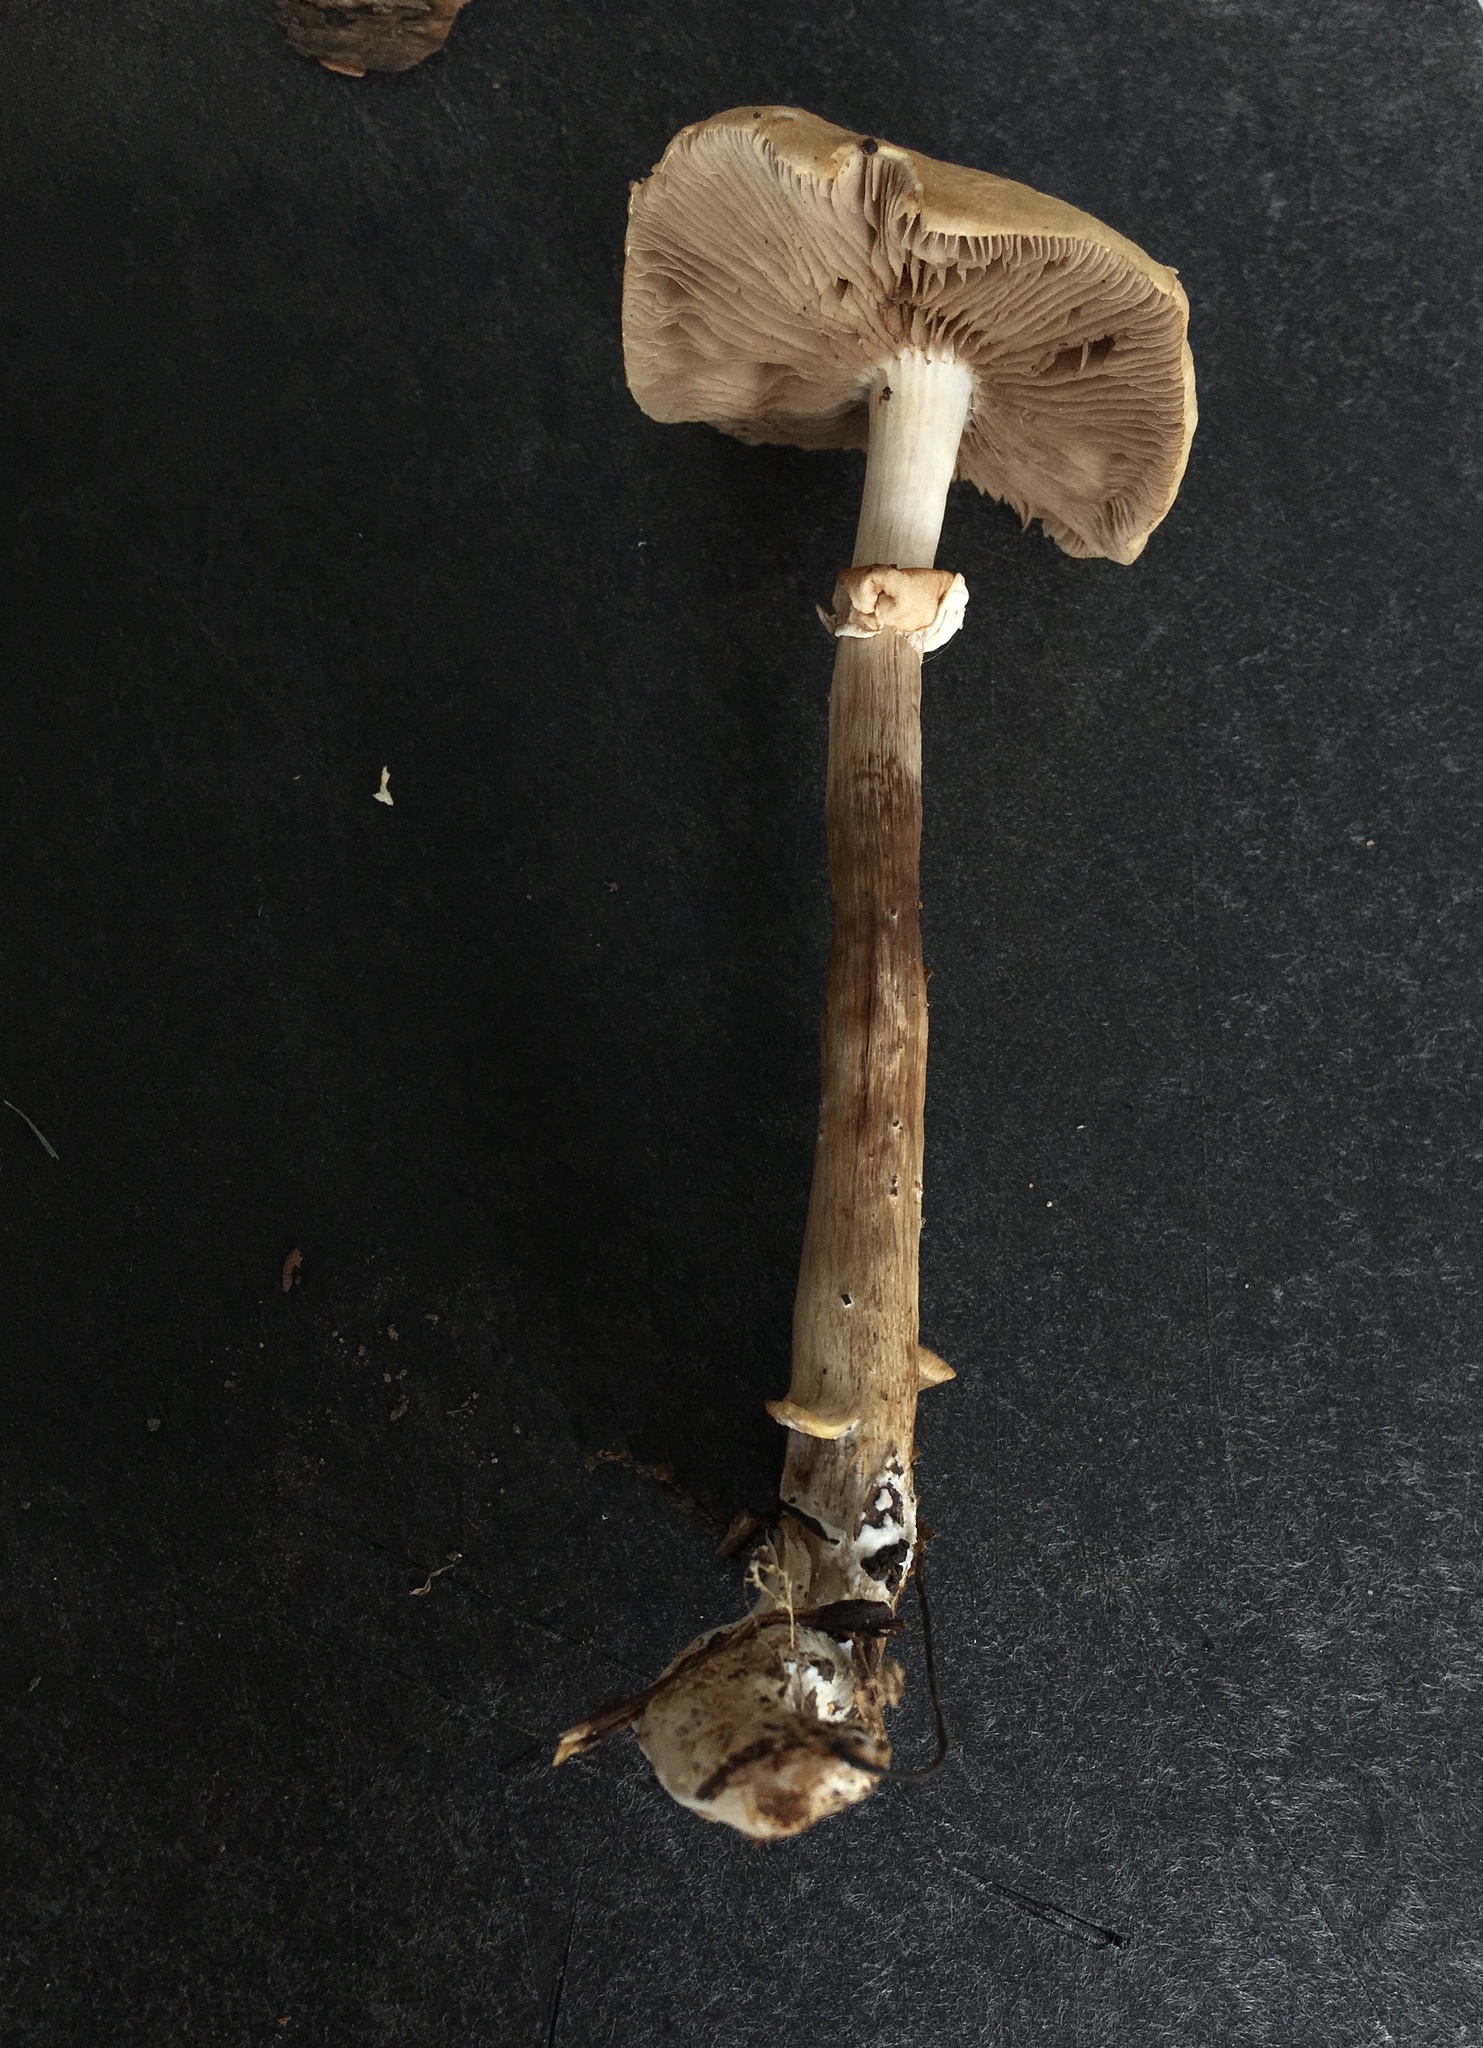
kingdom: Fungi
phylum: Basidiomycota
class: Agaricomycetes
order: Agaricales
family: Strophariaceae
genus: Agrocybe
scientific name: Agrocybe acericola
